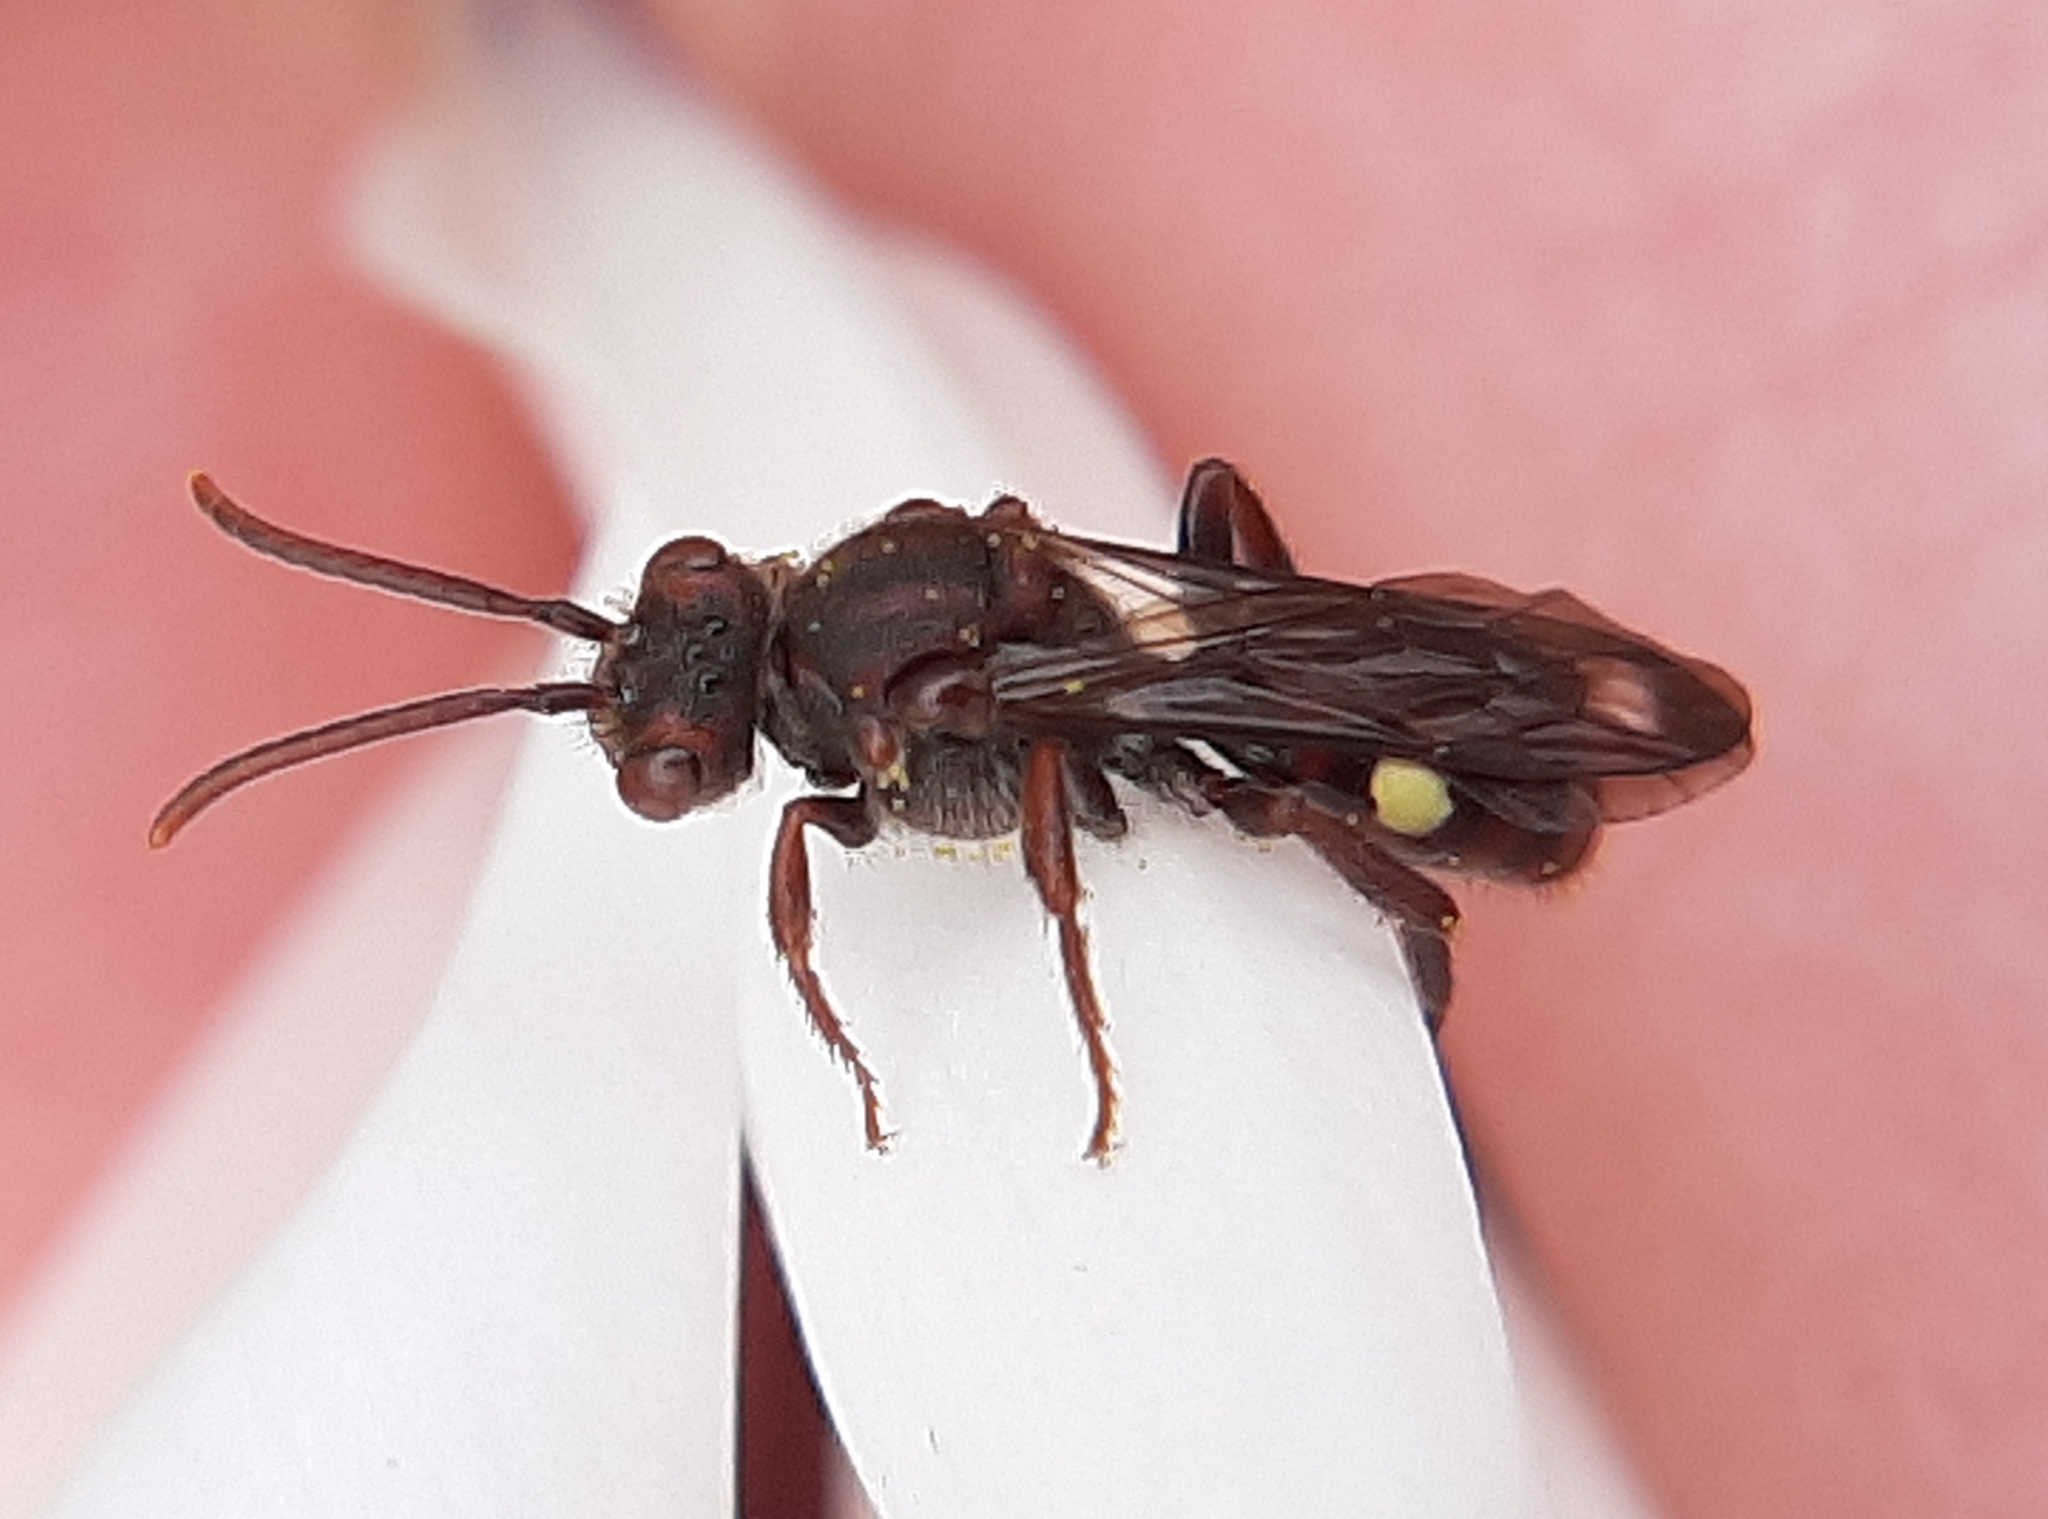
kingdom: Animalia
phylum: Arthropoda
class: Insecta
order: Hymenoptera
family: Apidae
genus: Nomada
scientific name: Nomada gracilis
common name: Slender cuckoo nomad bee
